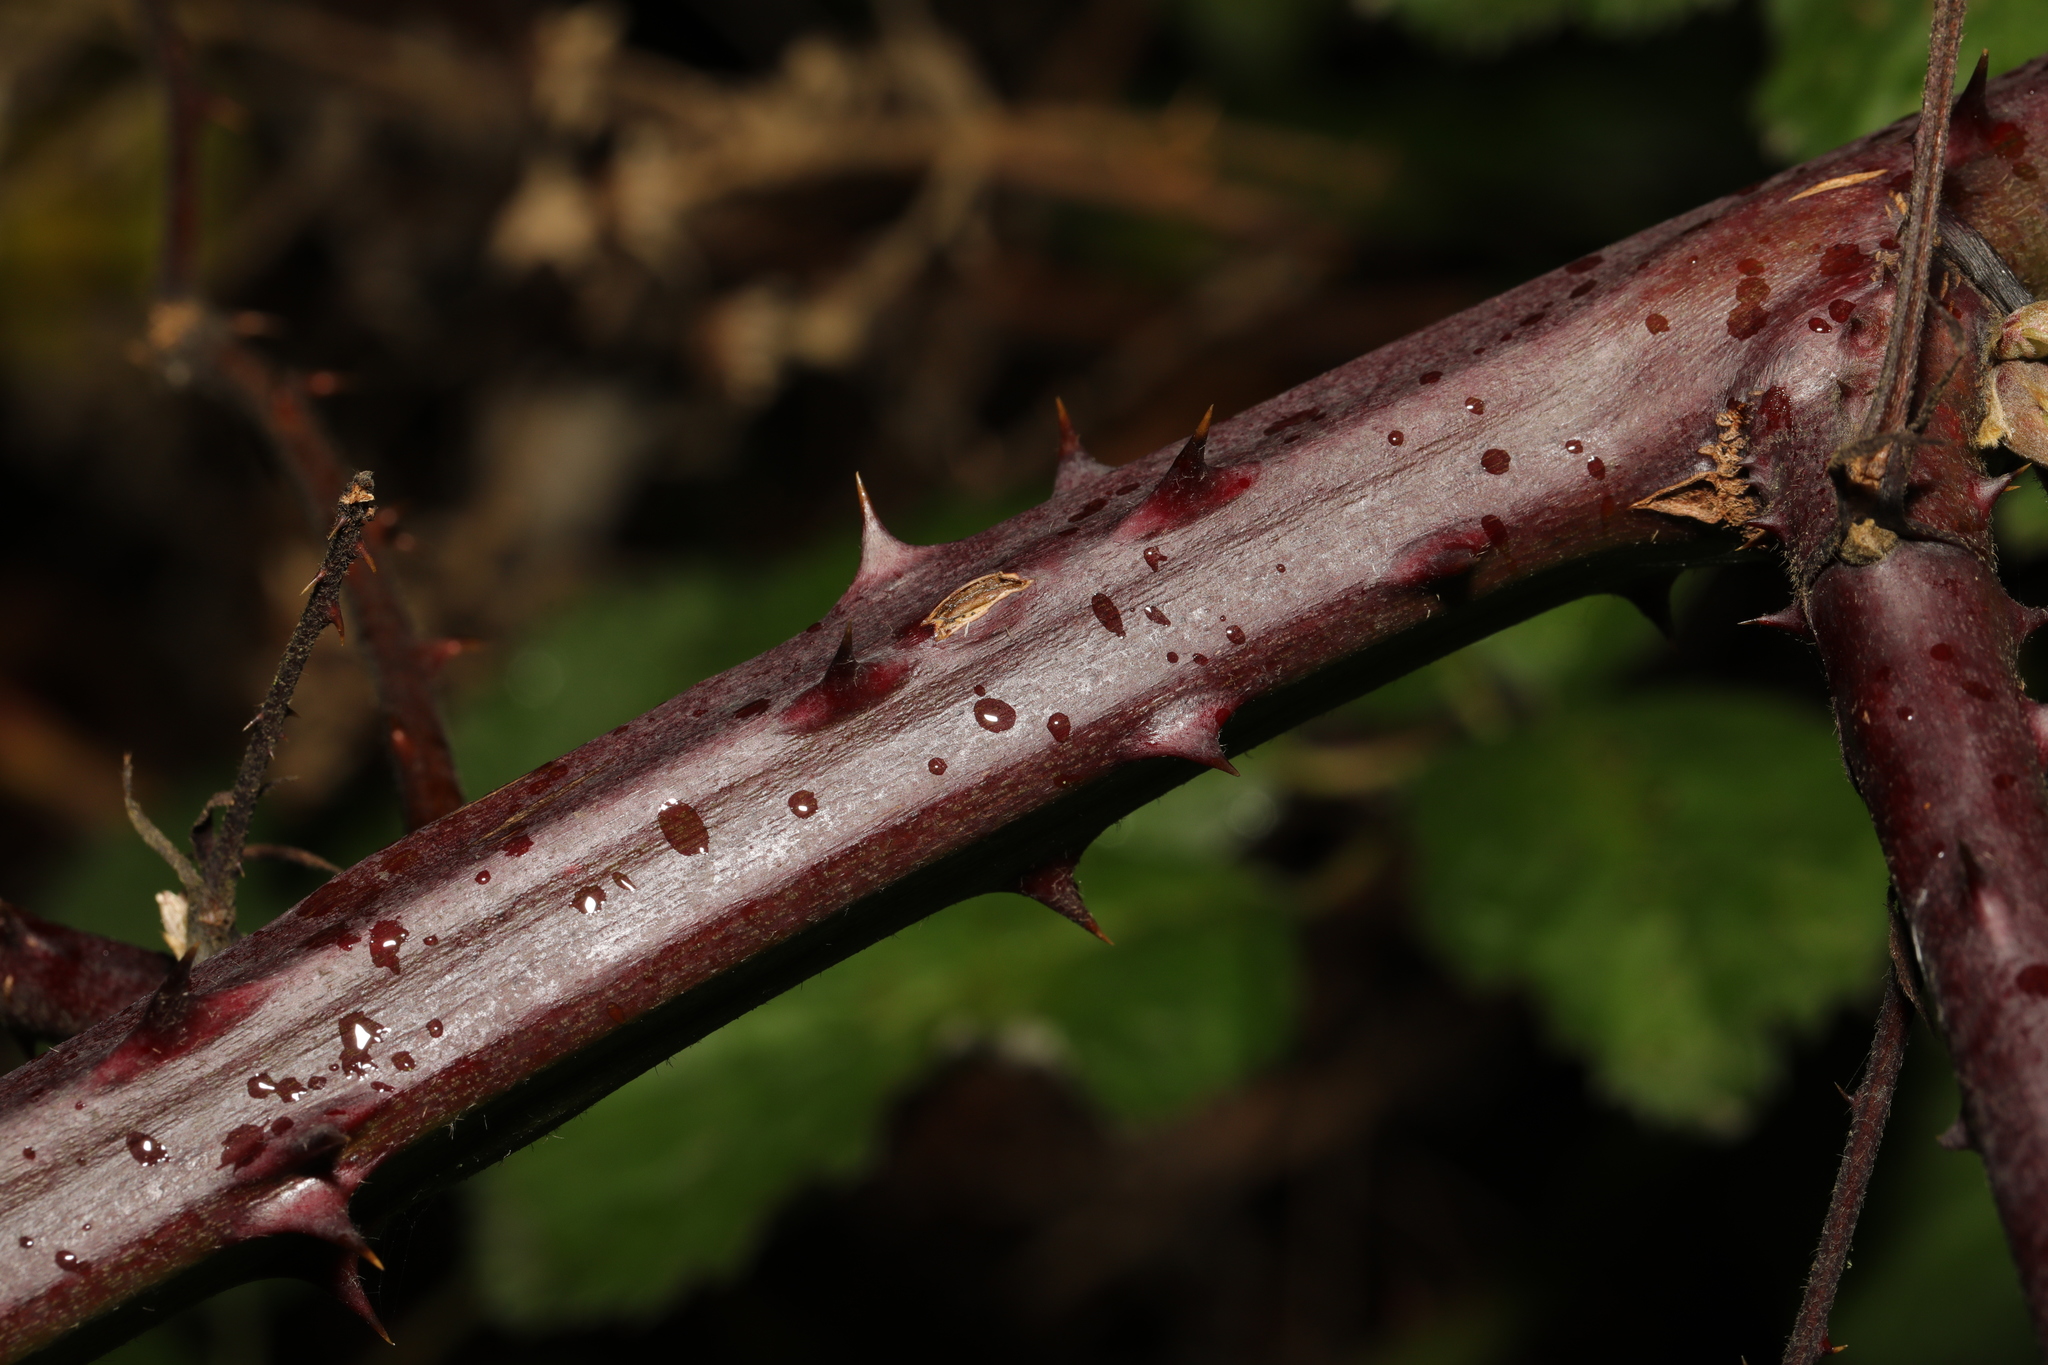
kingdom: Plantae
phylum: Tracheophyta
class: Magnoliopsida
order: Rosales
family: Rosaceae
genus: Rubus
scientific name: Rubus armeniacus
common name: Himalayan blackberry
